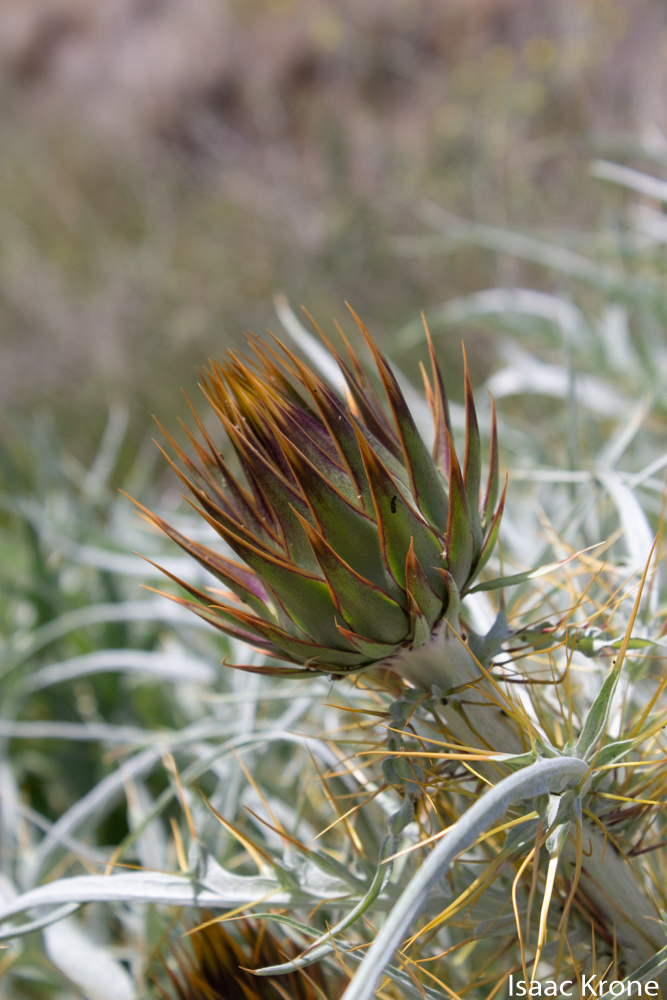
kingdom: Plantae
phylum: Tracheophyta
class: Magnoliopsida
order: Asterales
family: Asteraceae
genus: Cynara
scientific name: Cynara cardunculus
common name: Globe artichoke
